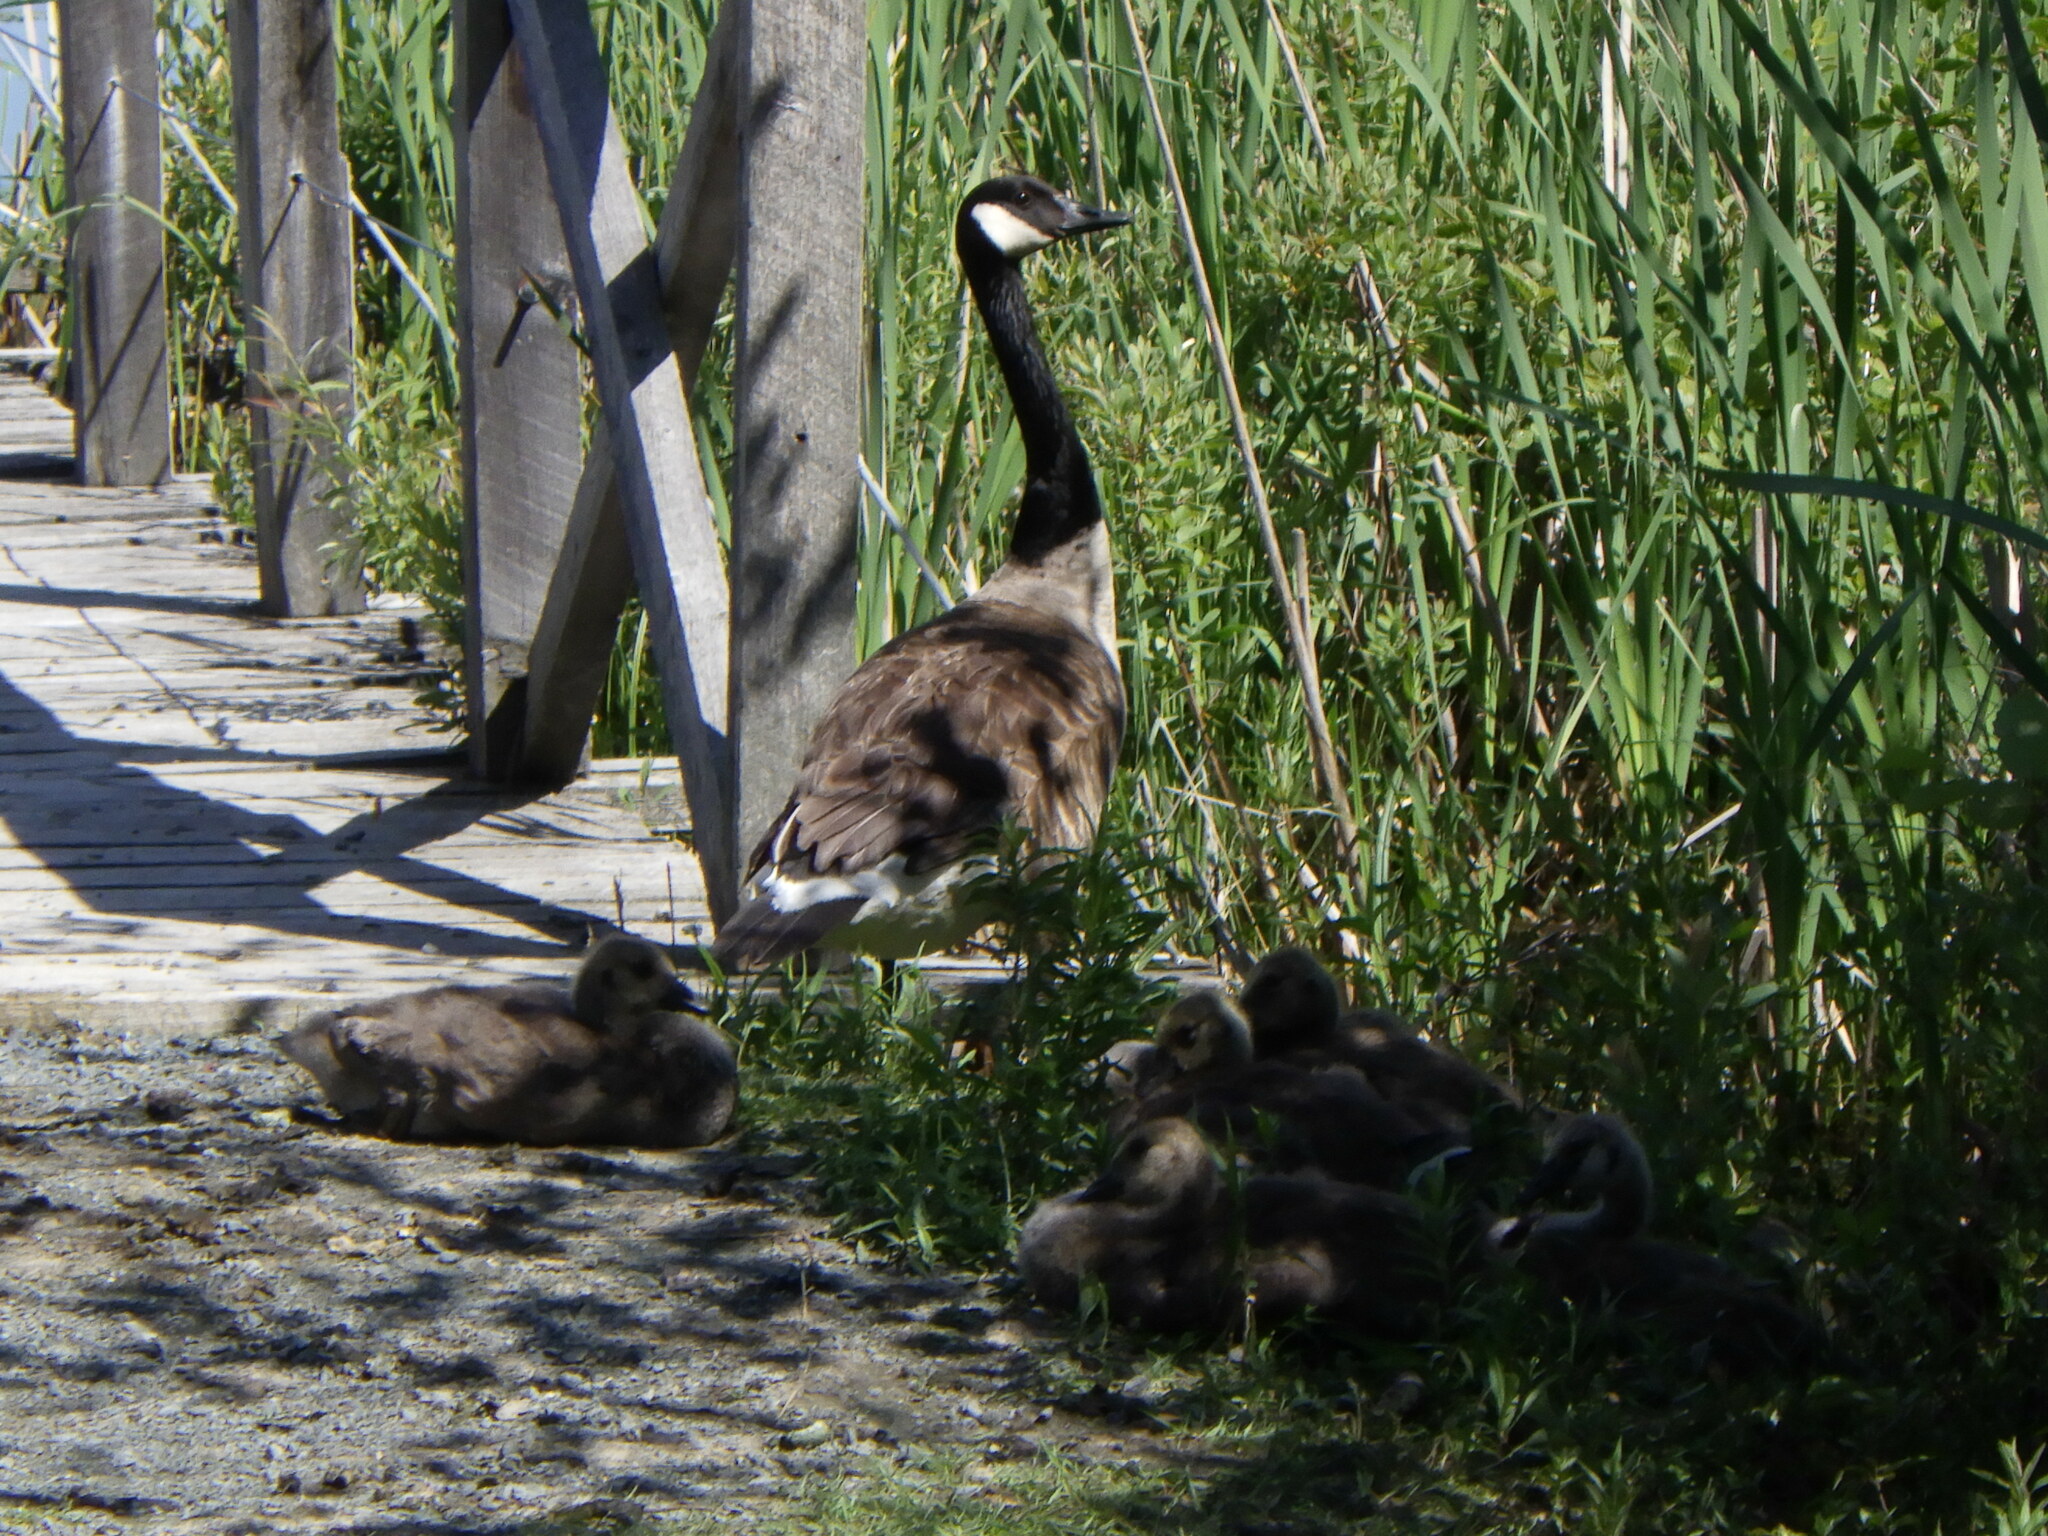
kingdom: Animalia
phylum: Chordata
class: Aves
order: Anseriformes
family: Anatidae
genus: Branta
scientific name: Branta canadensis
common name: Canada goose
